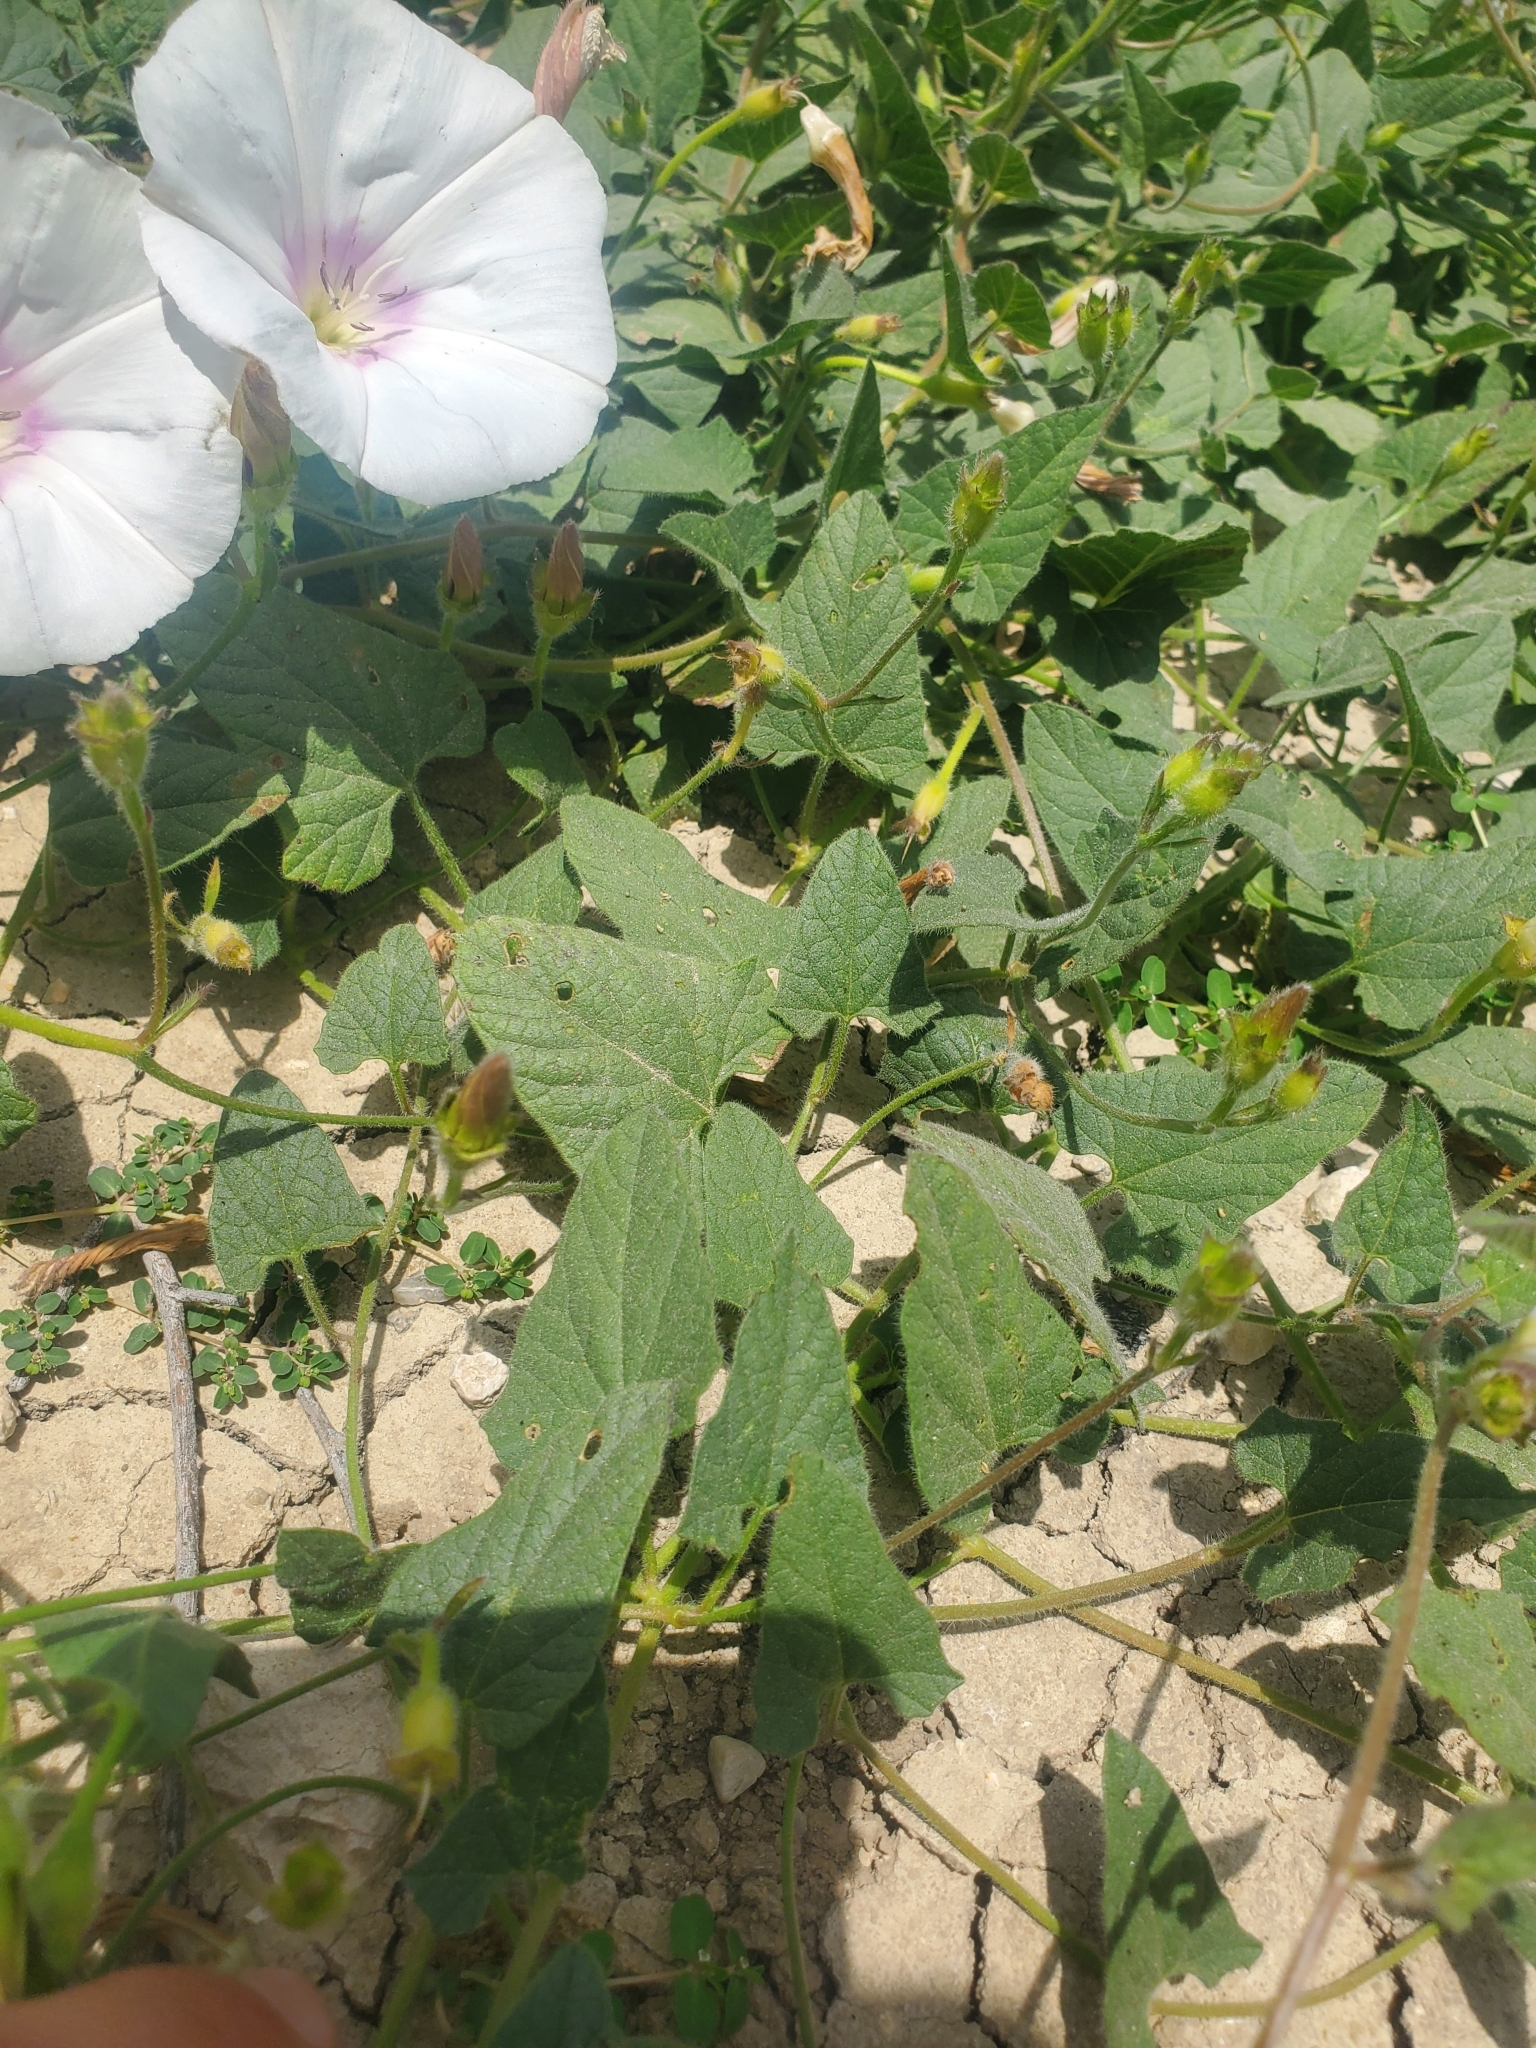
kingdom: Plantae
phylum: Tracheophyta
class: Magnoliopsida
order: Solanales
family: Convolvulaceae
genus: Convolvulus
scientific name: Convolvulus betonicifolius
